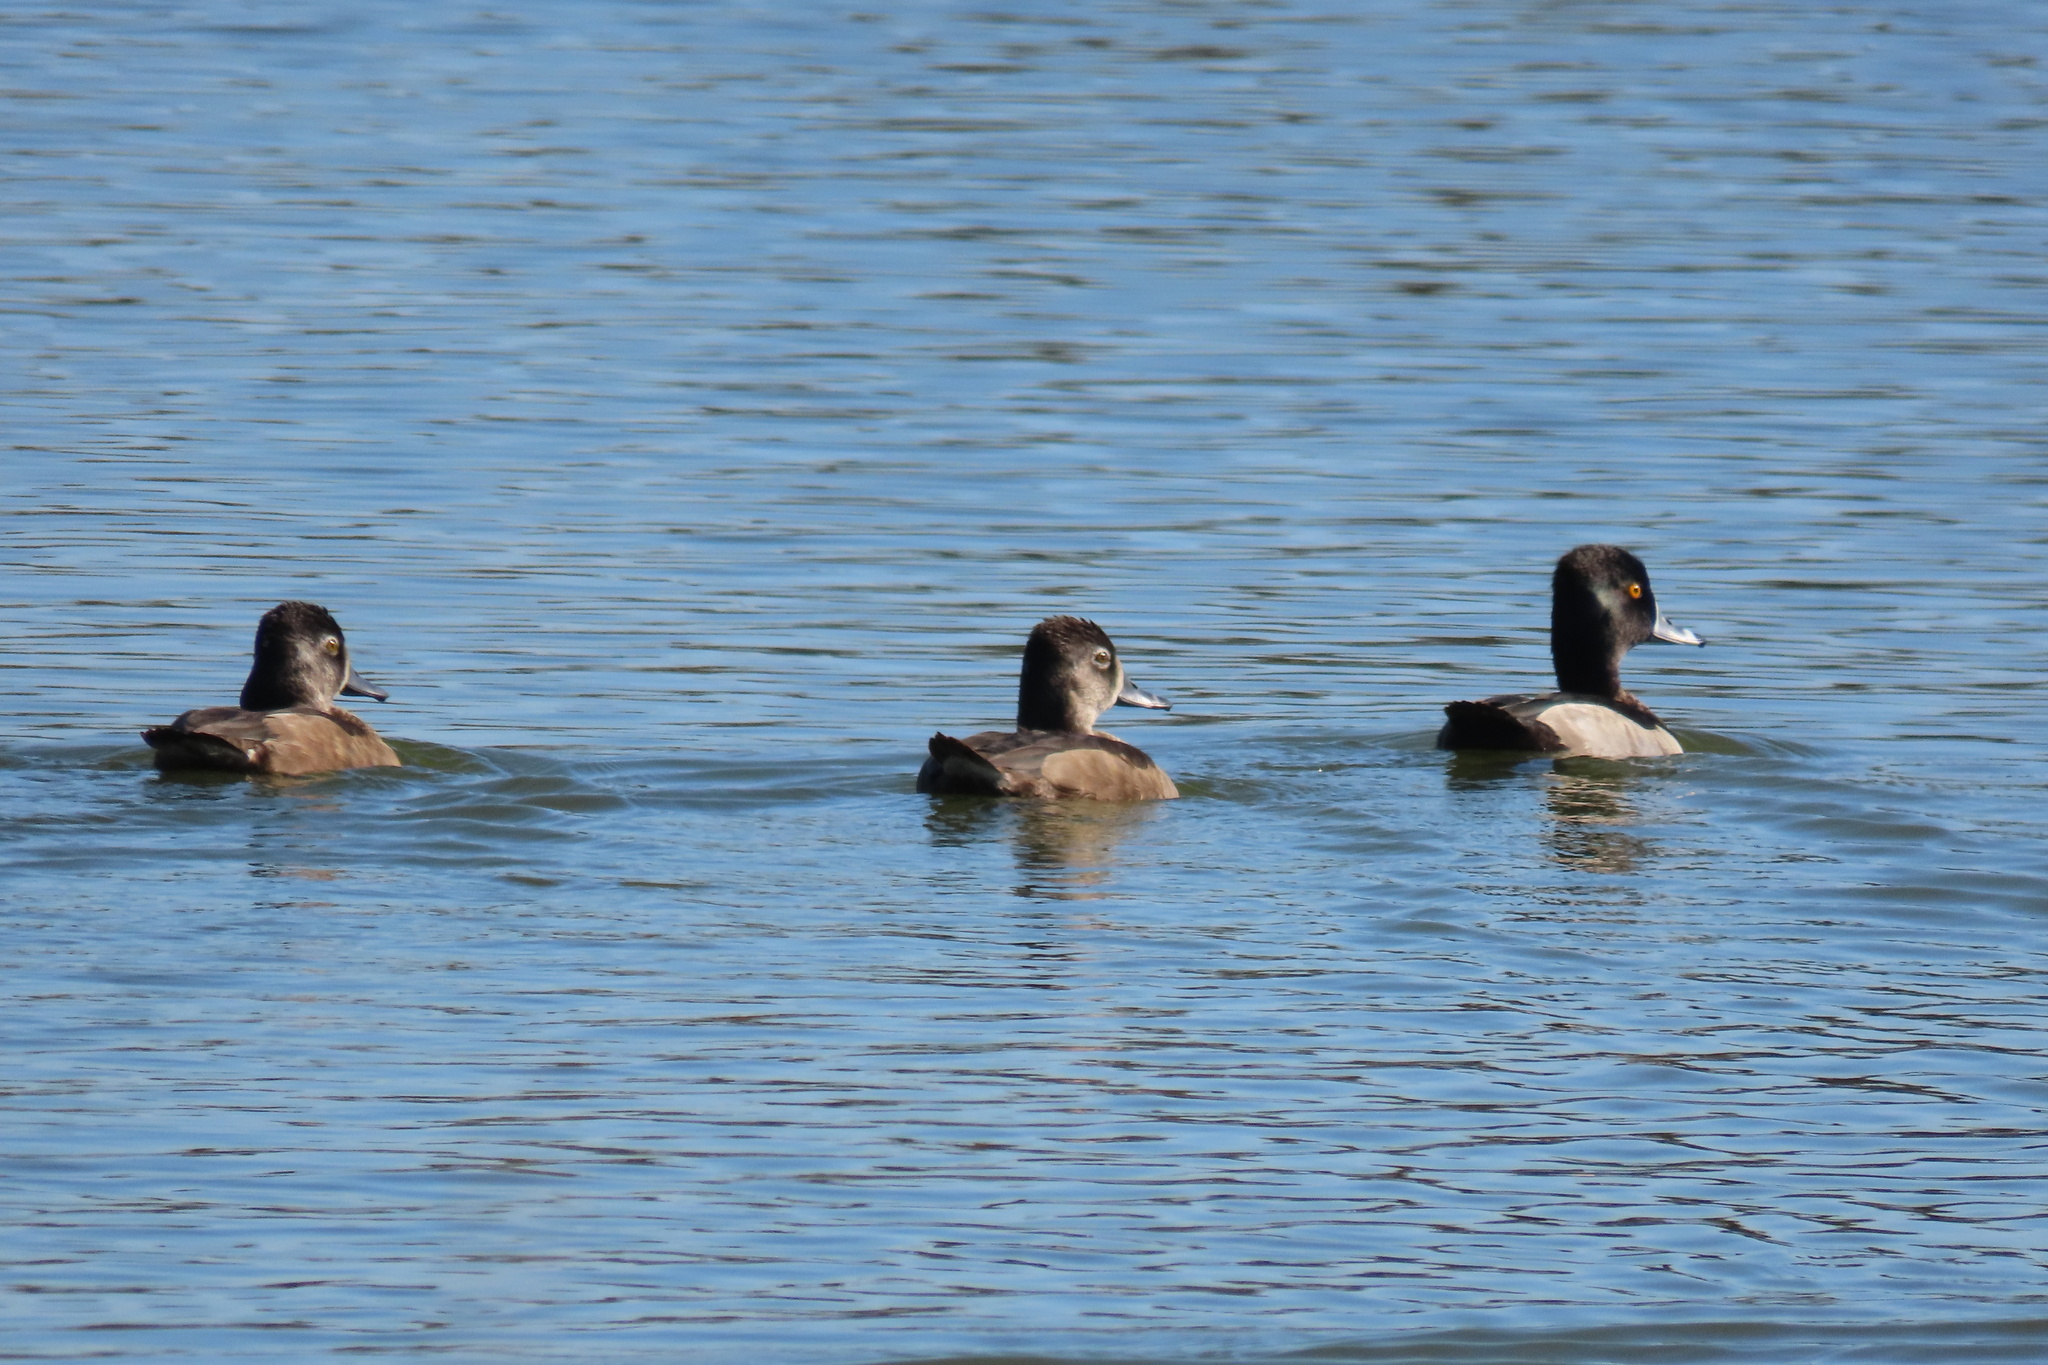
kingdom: Animalia
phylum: Chordata
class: Aves
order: Anseriformes
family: Anatidae
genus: Aythya
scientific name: Aythya collaris
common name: Ring-necked duck
